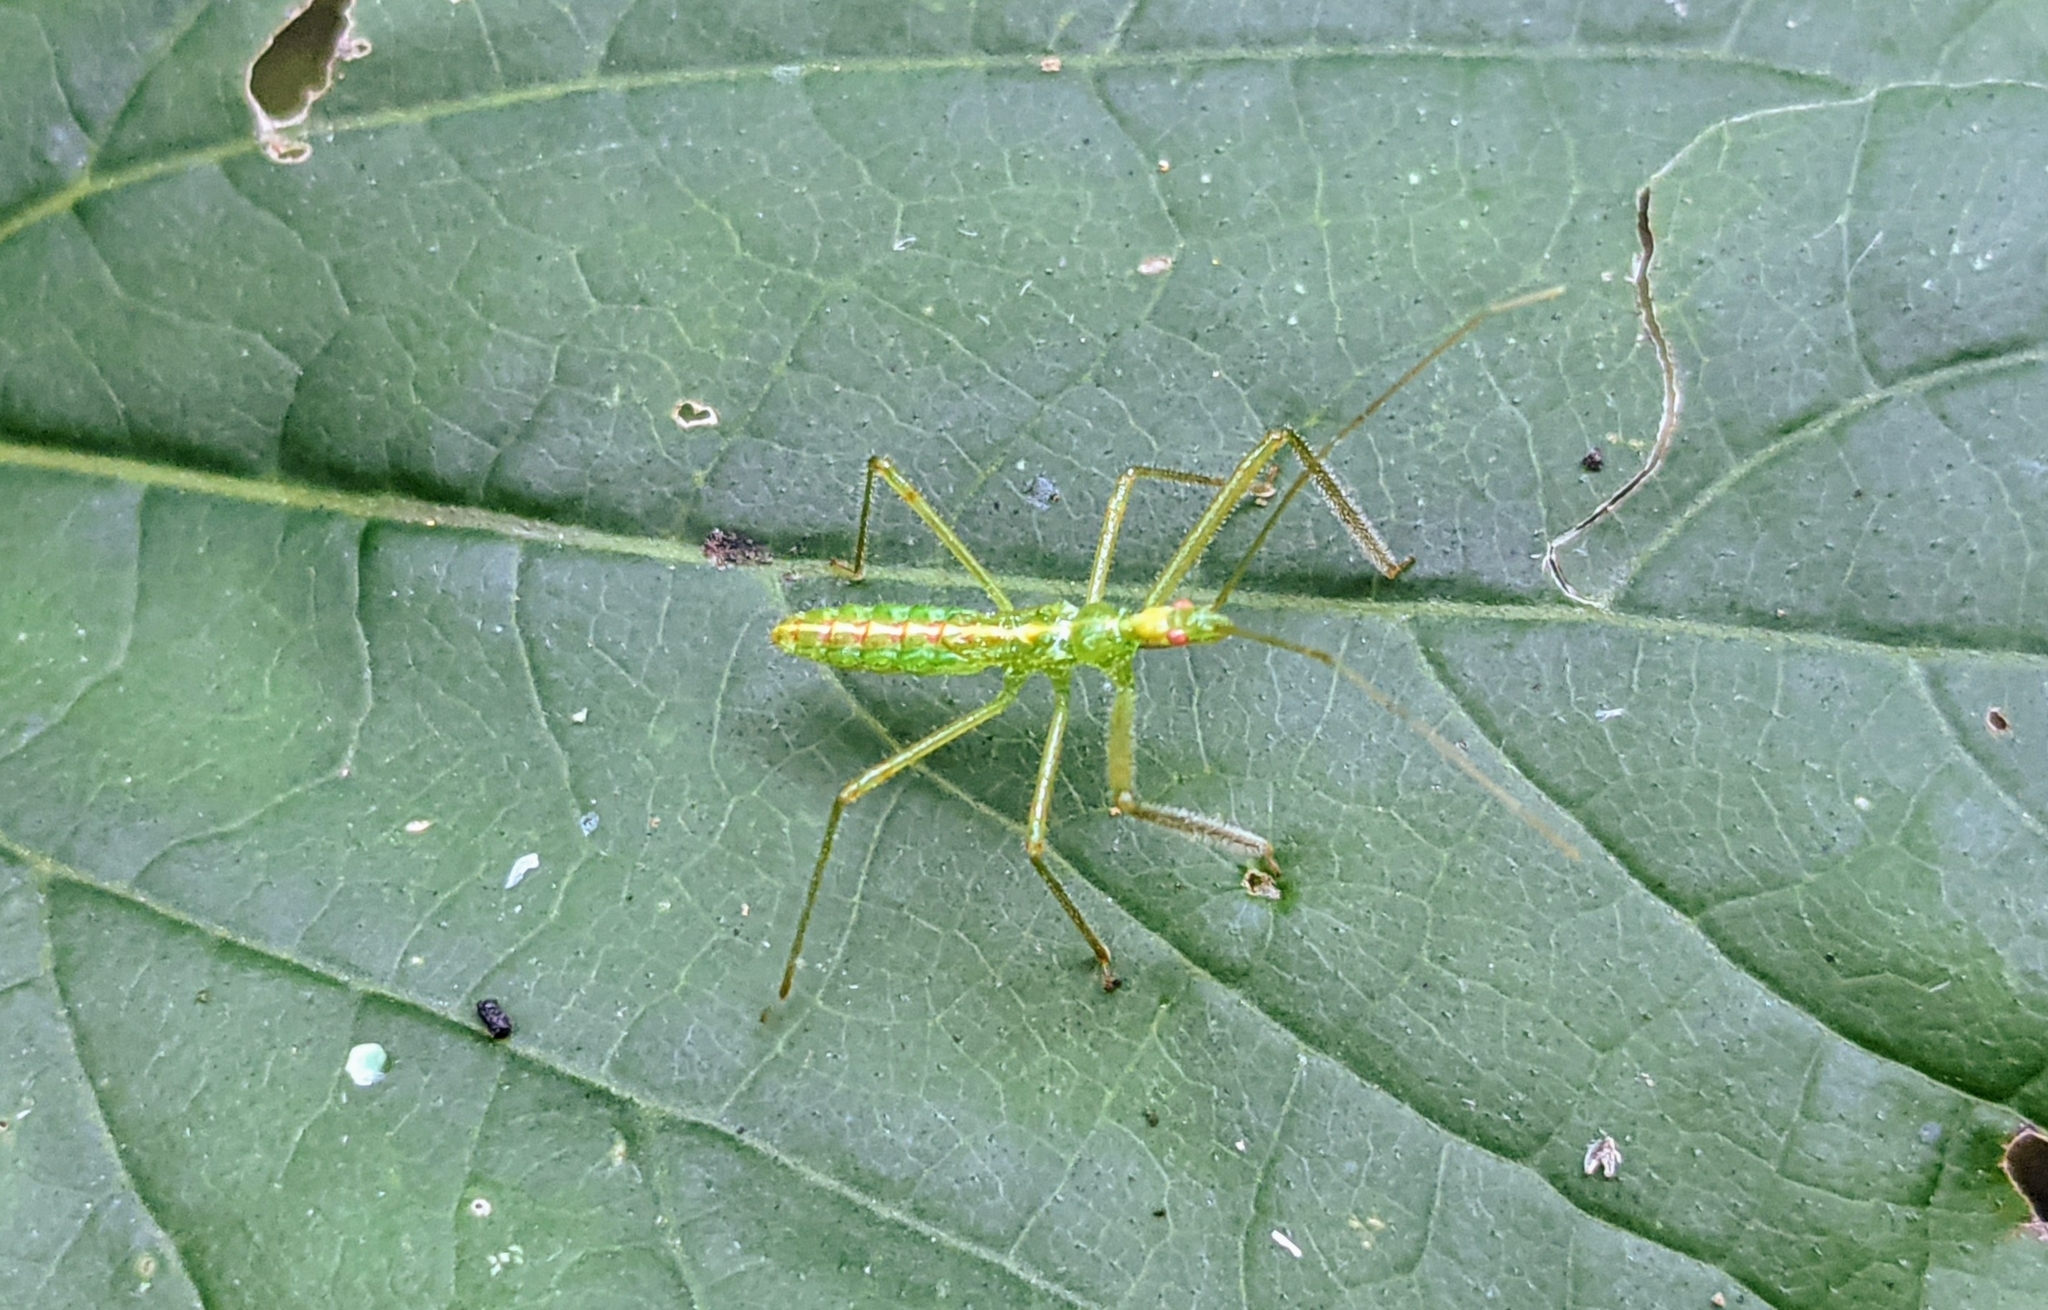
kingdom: Animalia
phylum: Arthropoda
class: Insecta
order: Hemiptera
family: Reduviidae
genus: Zelus
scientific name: Zelus luridus
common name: Pale green assassin bug
